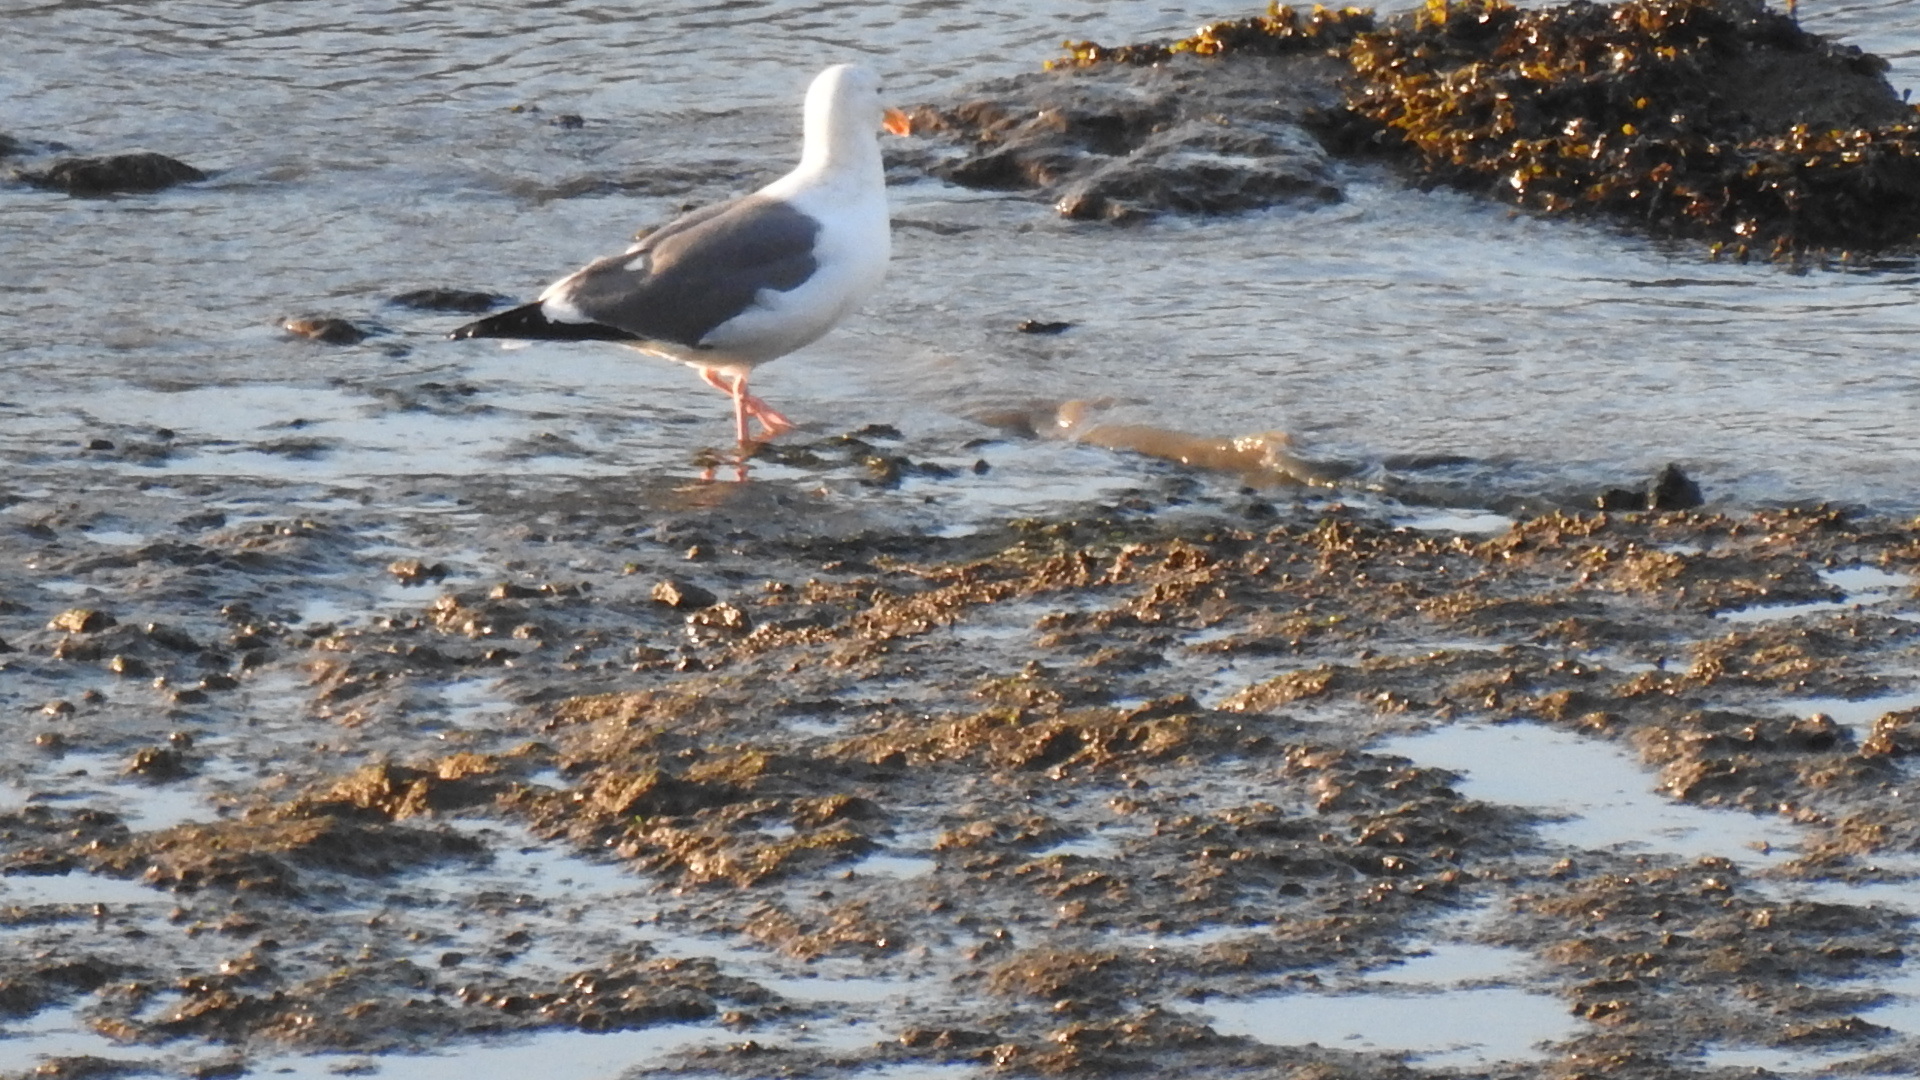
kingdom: Animalia
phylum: Chordata
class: Aves
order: Charadriiformes
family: Laridae
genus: Larus
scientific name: Larus occidentalis
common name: Western gull
